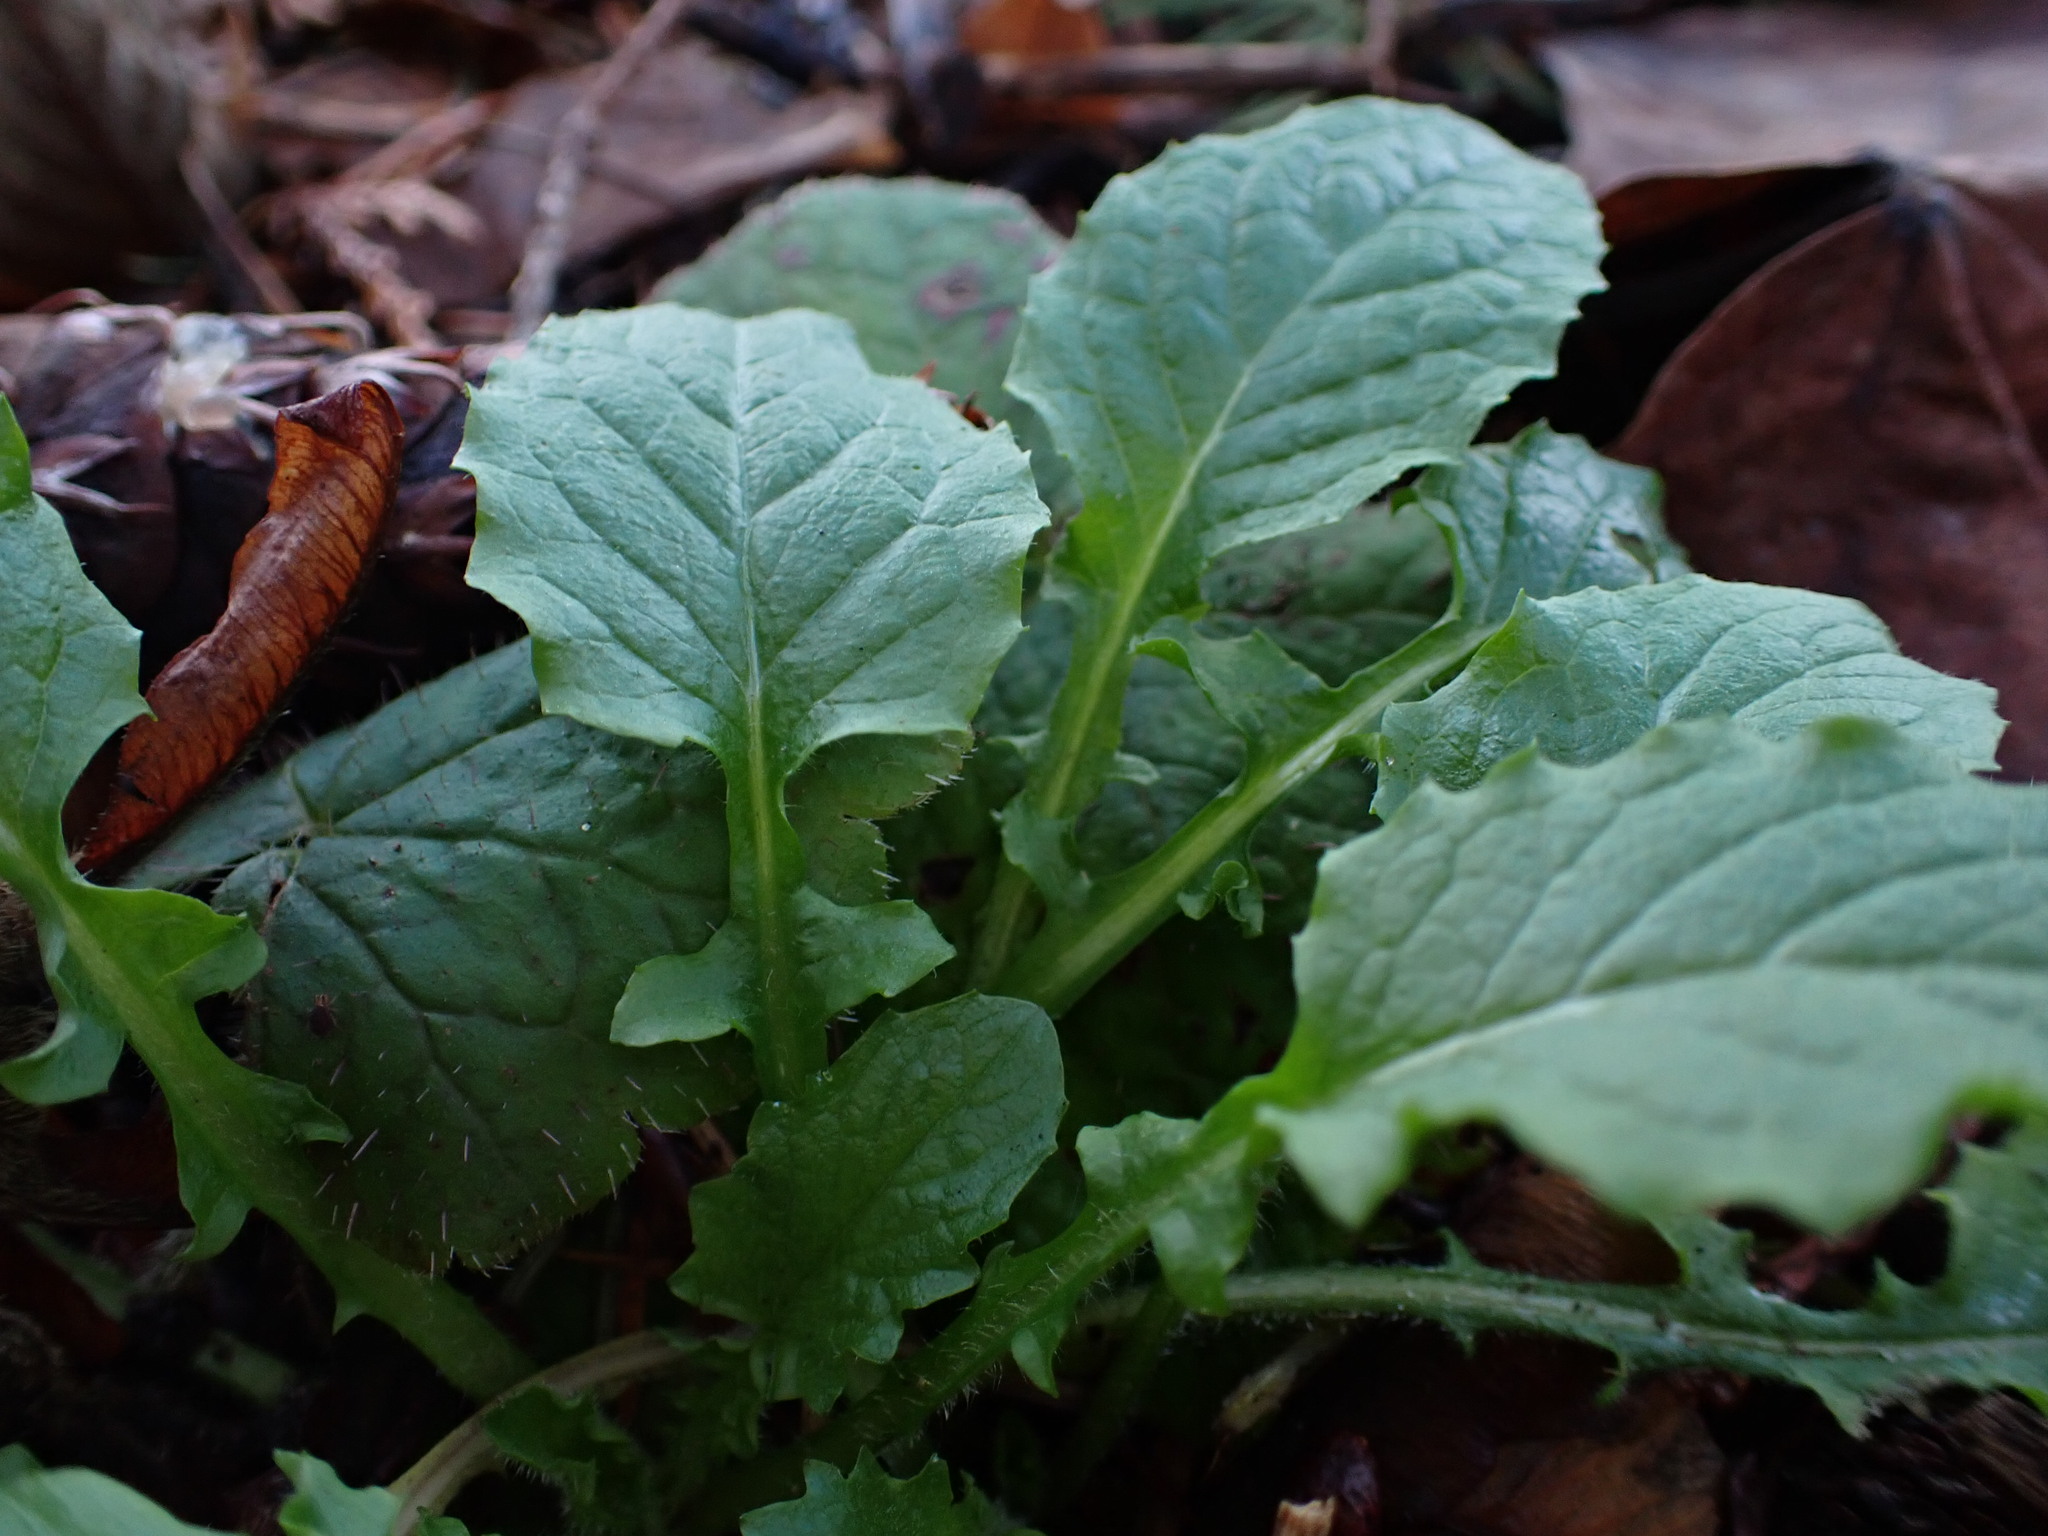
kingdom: Plantae
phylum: Tracheophyta
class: Magnoliopsida
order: Asterales
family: Asteraceae
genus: Lapsana
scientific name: Lapsana communis
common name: Nipplewort
